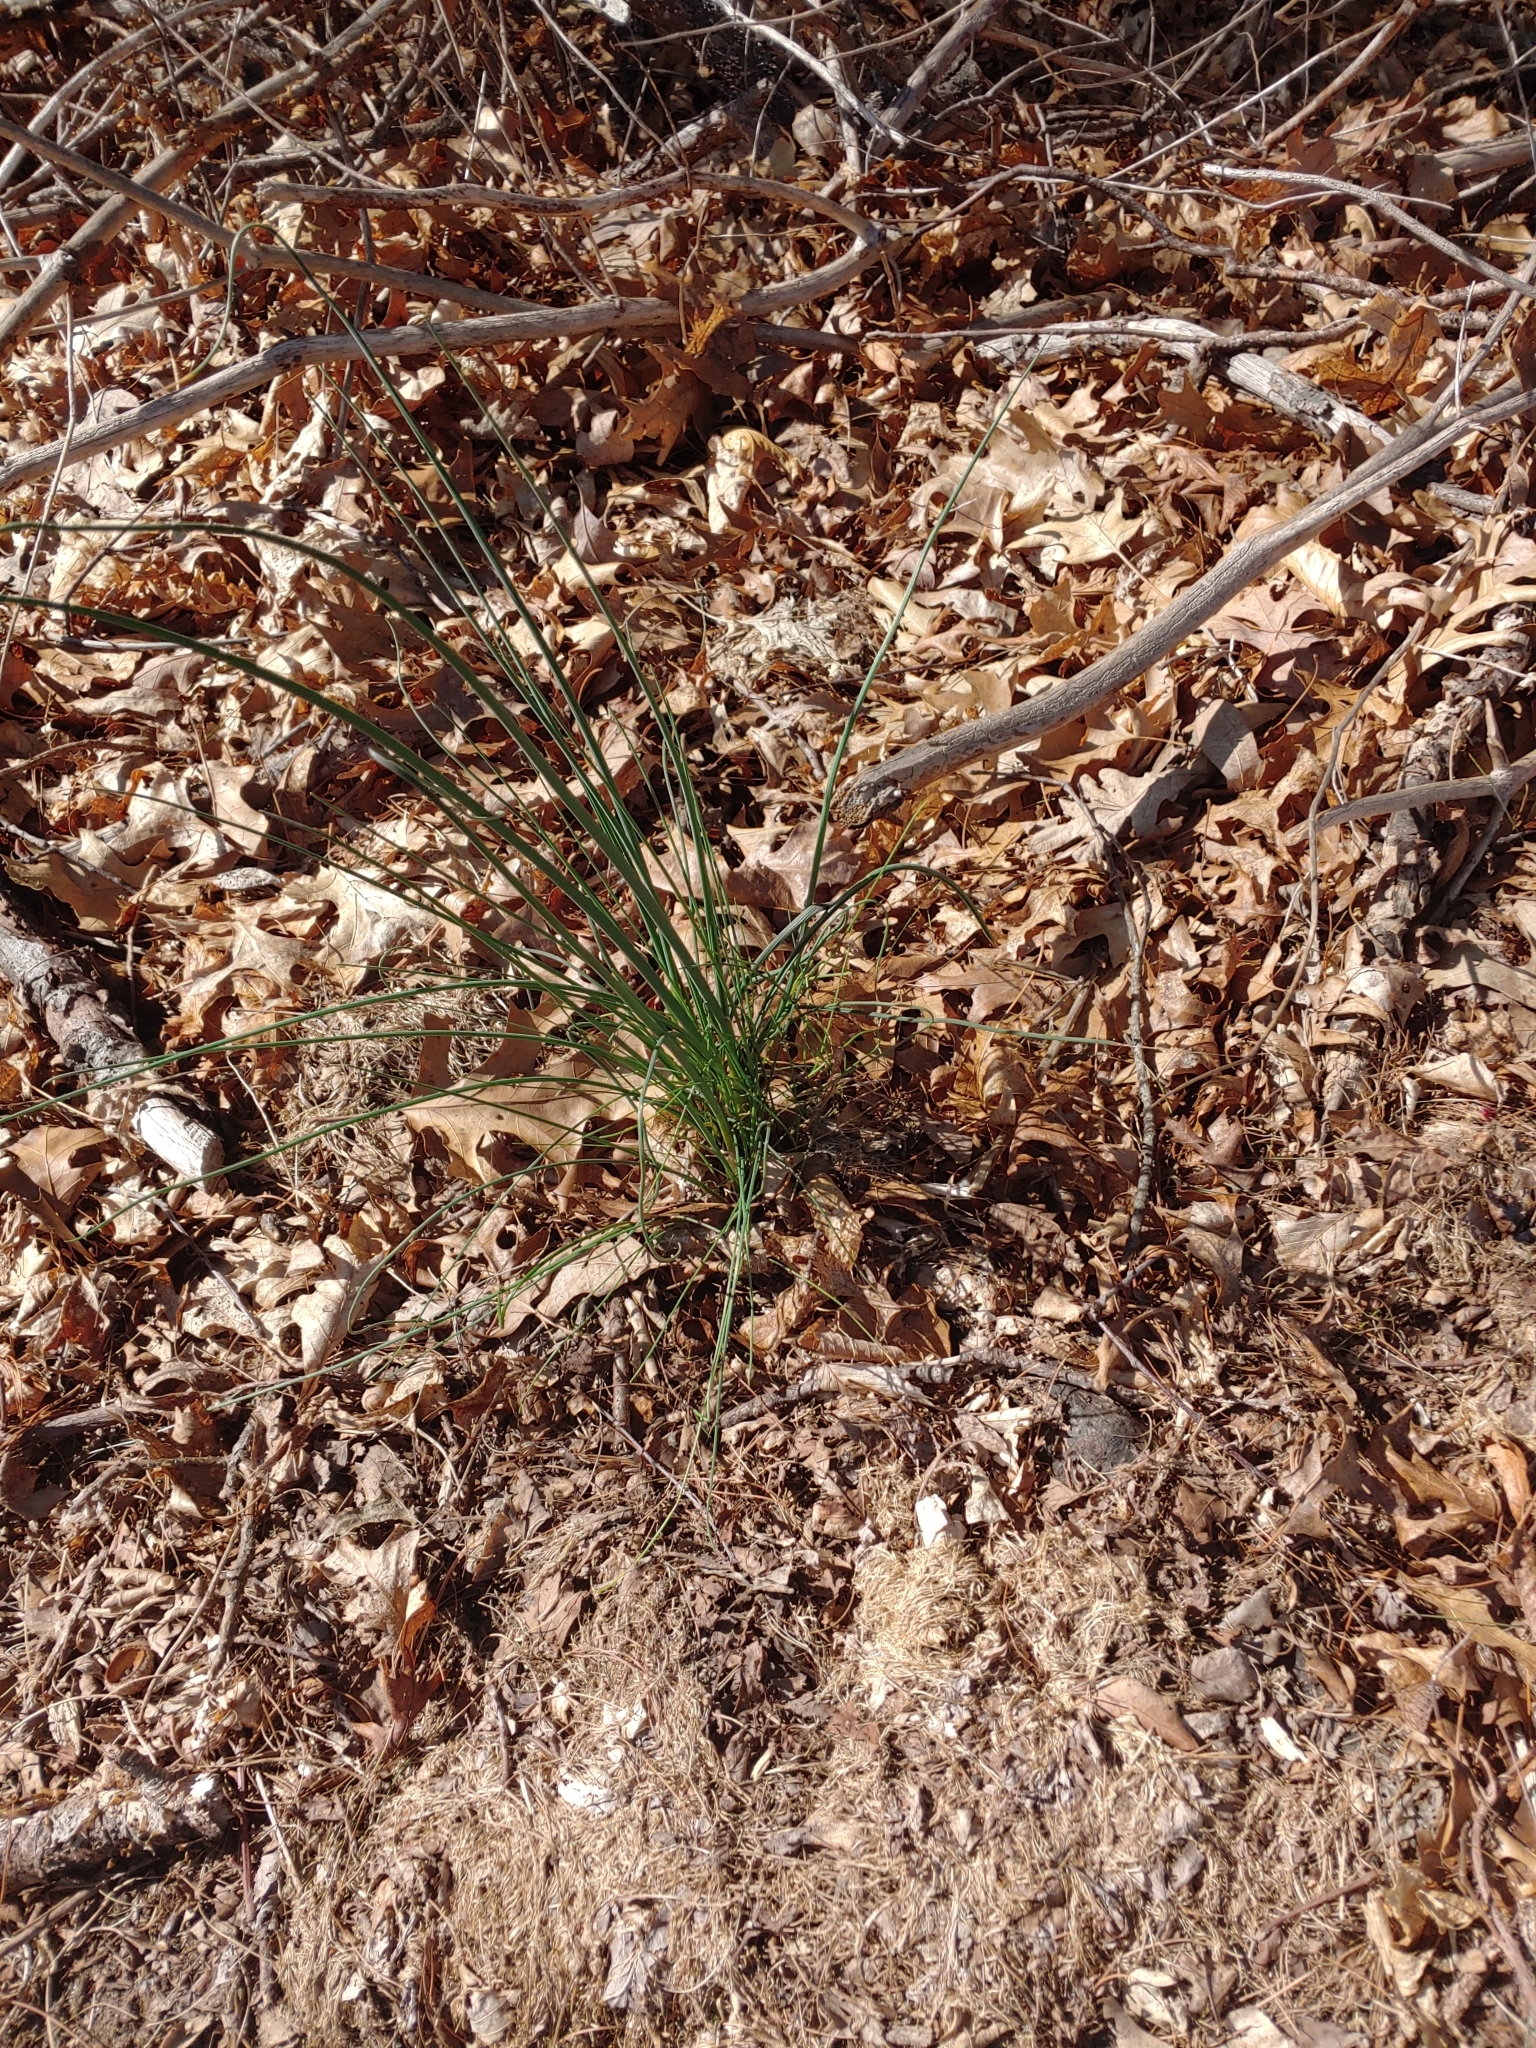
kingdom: Plantae
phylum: Tracheophyta
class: Liliopsida
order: Asparagales
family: Amaryllidaceae
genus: Allium
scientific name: Allium vineale
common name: Crow garlic
